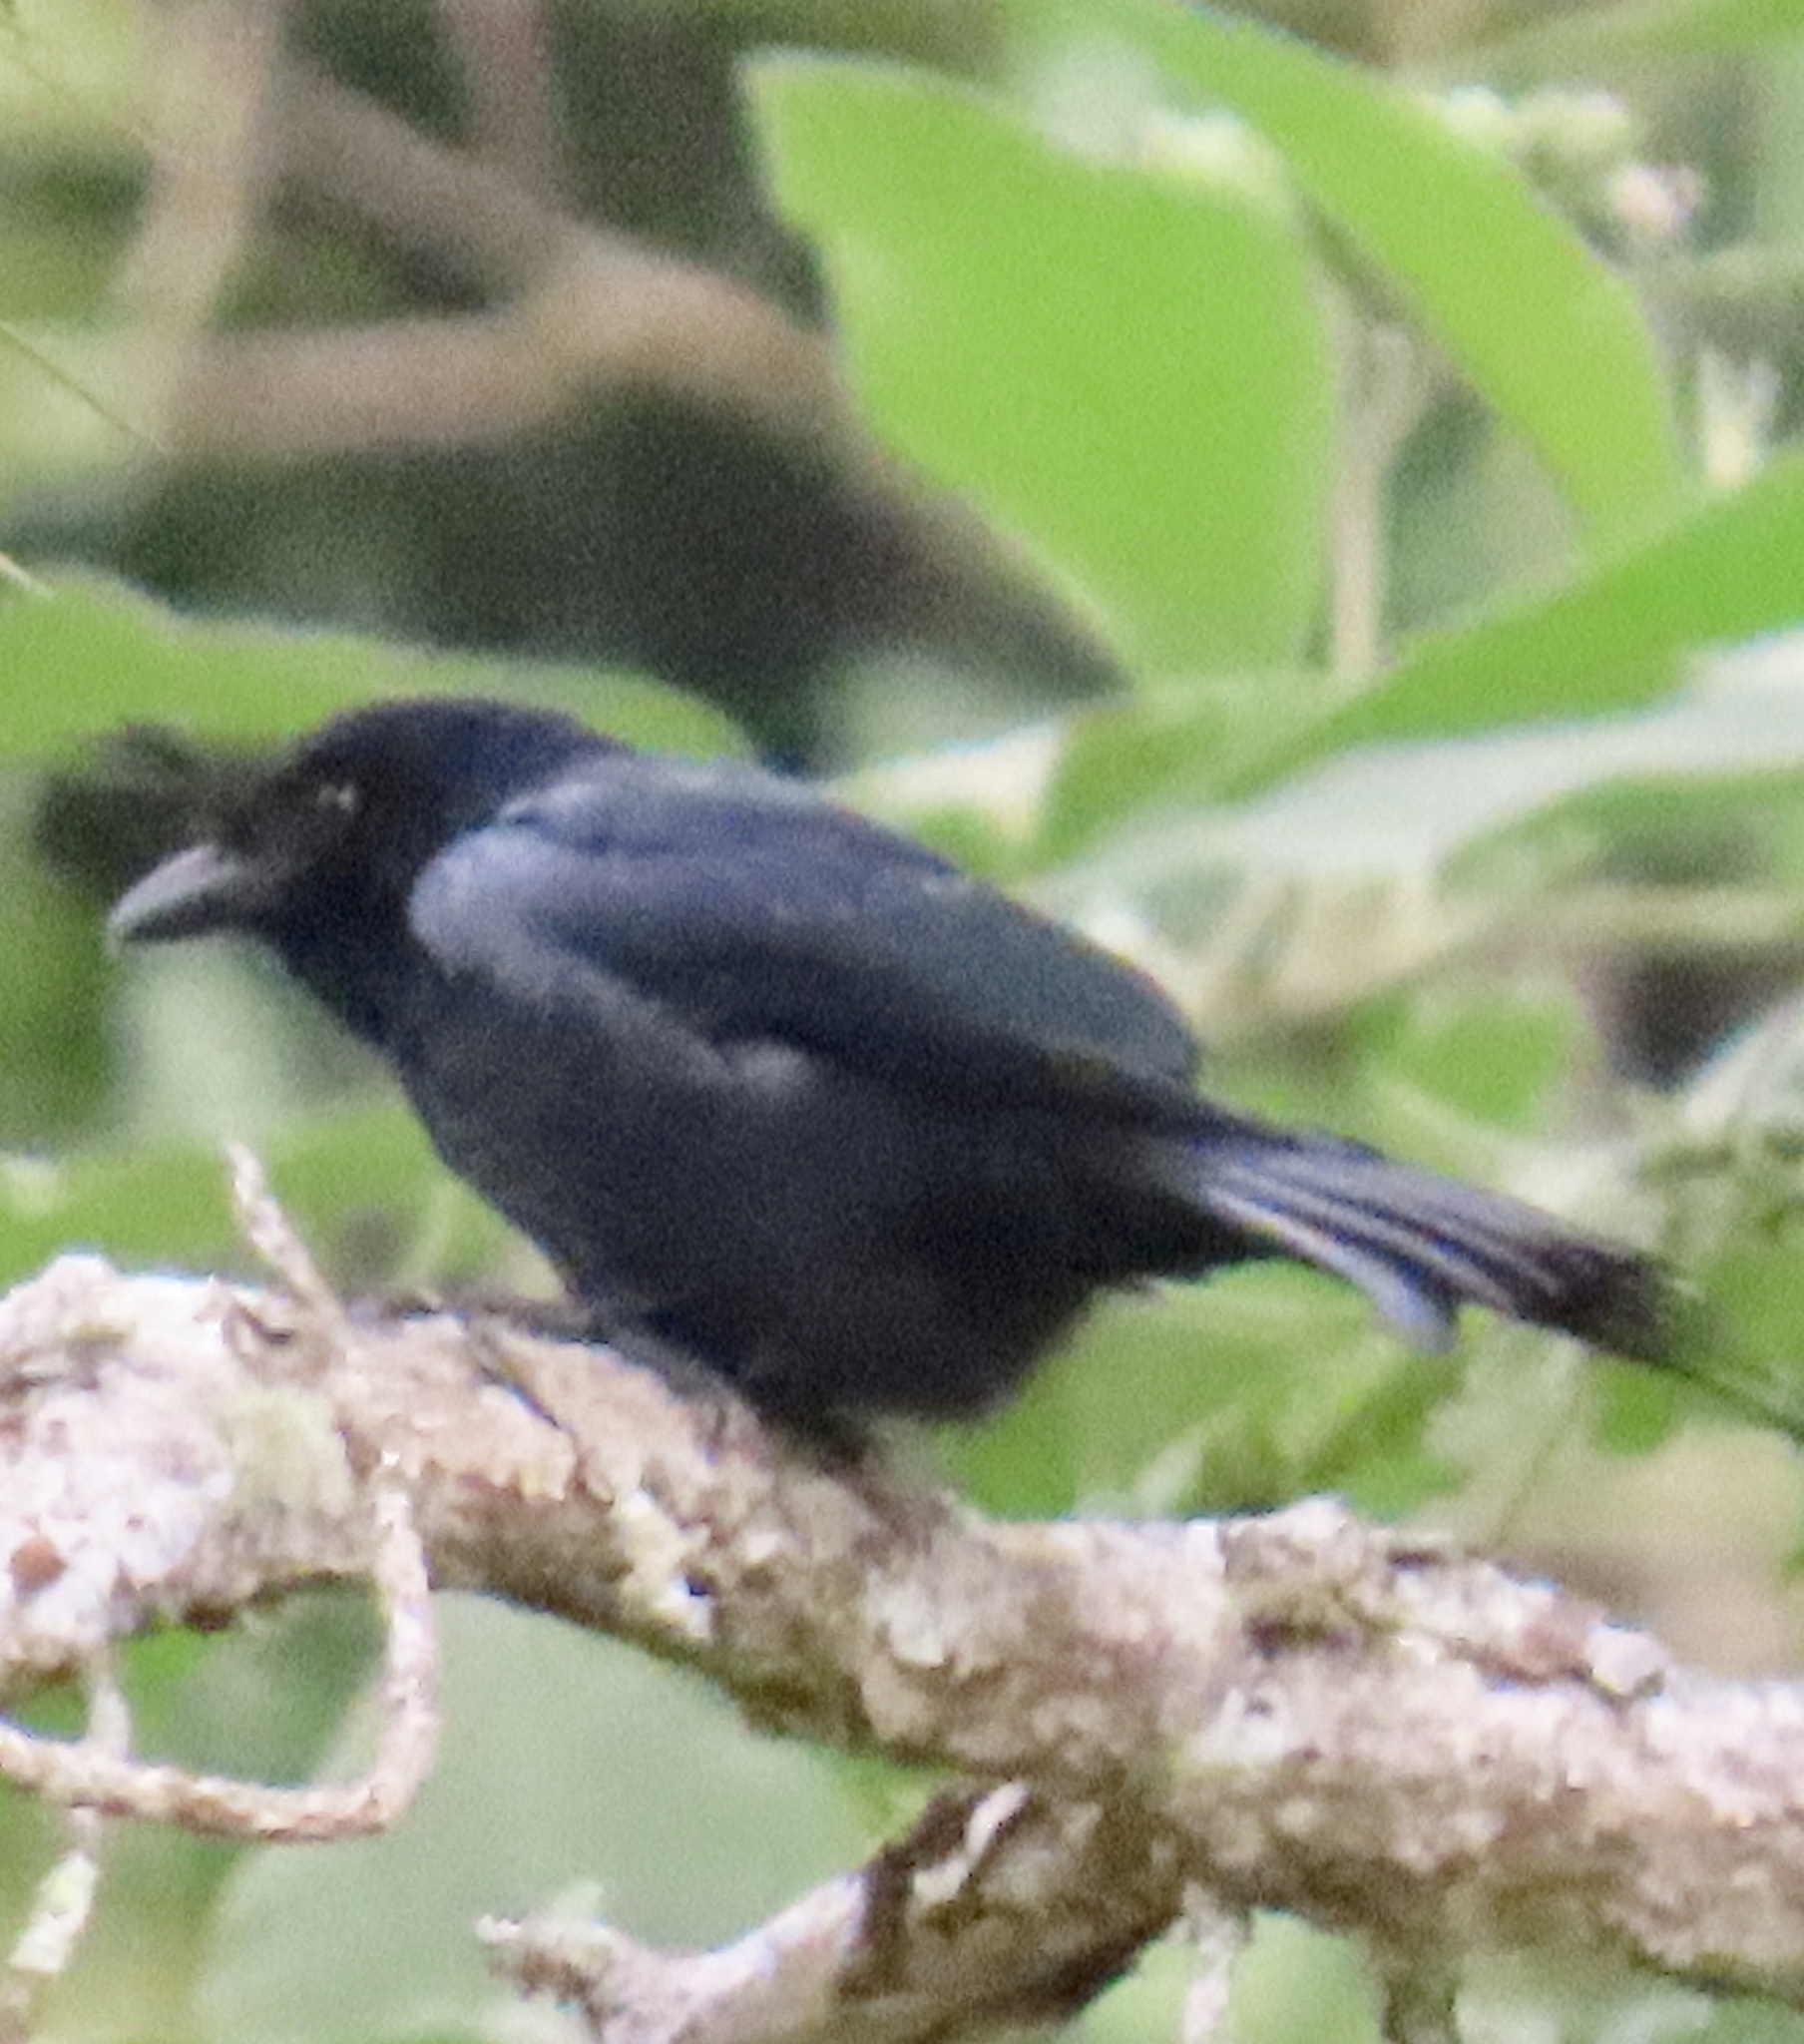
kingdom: Animalia
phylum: Chordata
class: Aves
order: Passeriformes
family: Dicruridae
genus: Dicrurus
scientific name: Dicrurus forficatus
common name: Crested drongo
